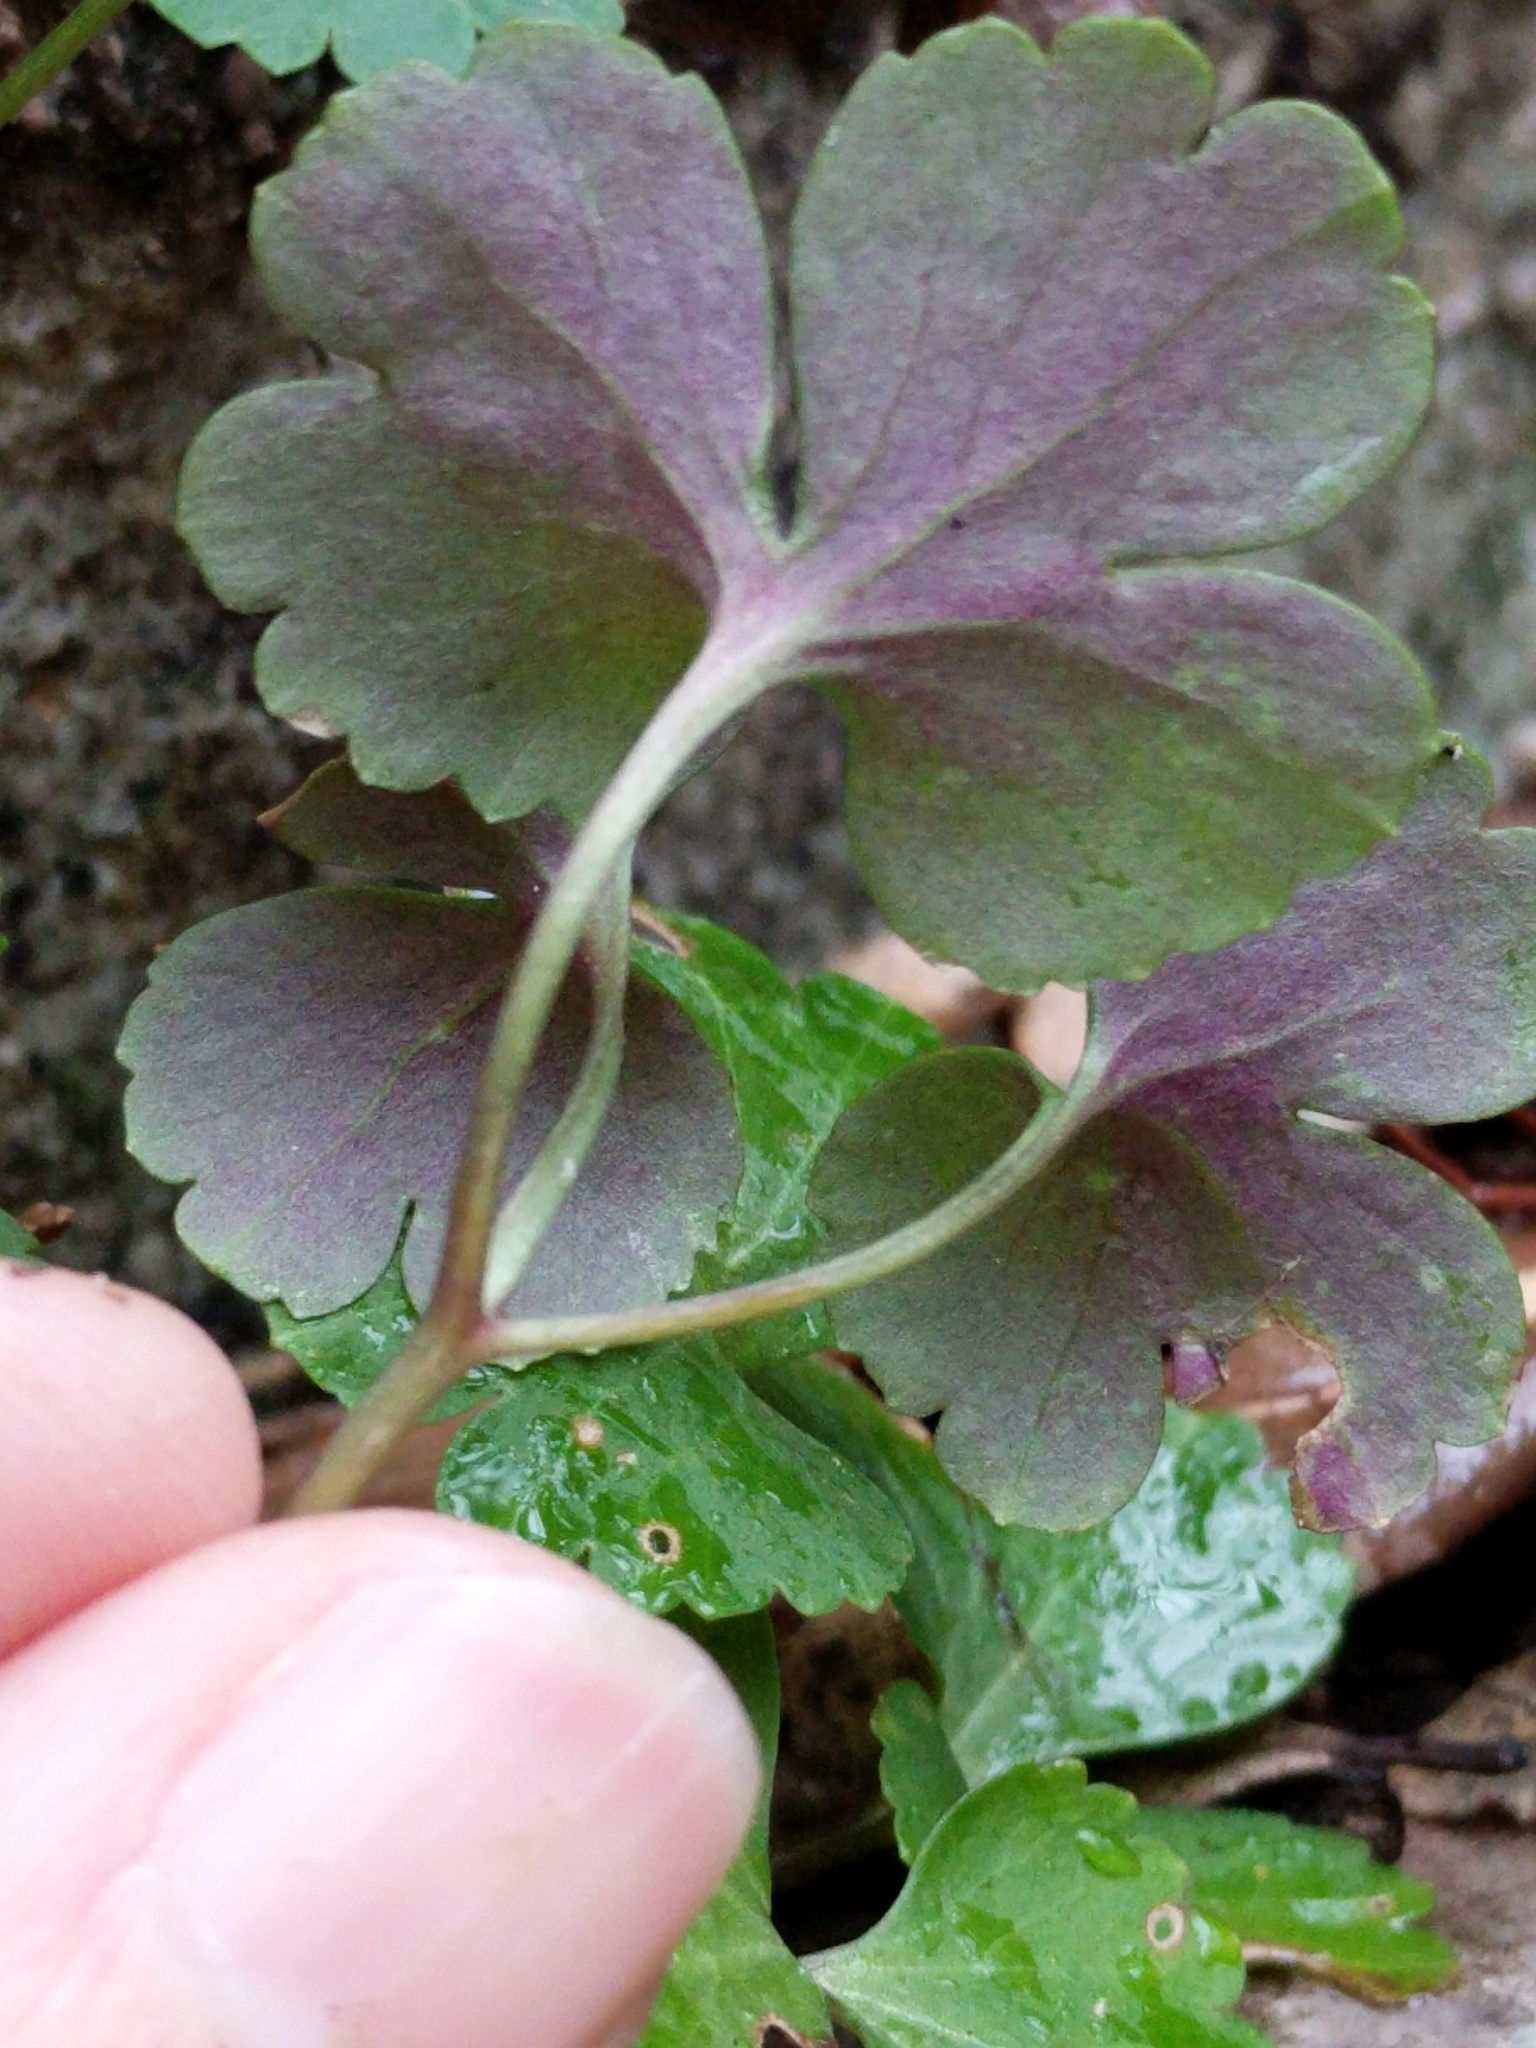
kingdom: Plantae
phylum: Tracheophyta
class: Magnoliopsida
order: Ranunculales
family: Ranunculaceae
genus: Anemone
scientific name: Anemone edwardsiana
